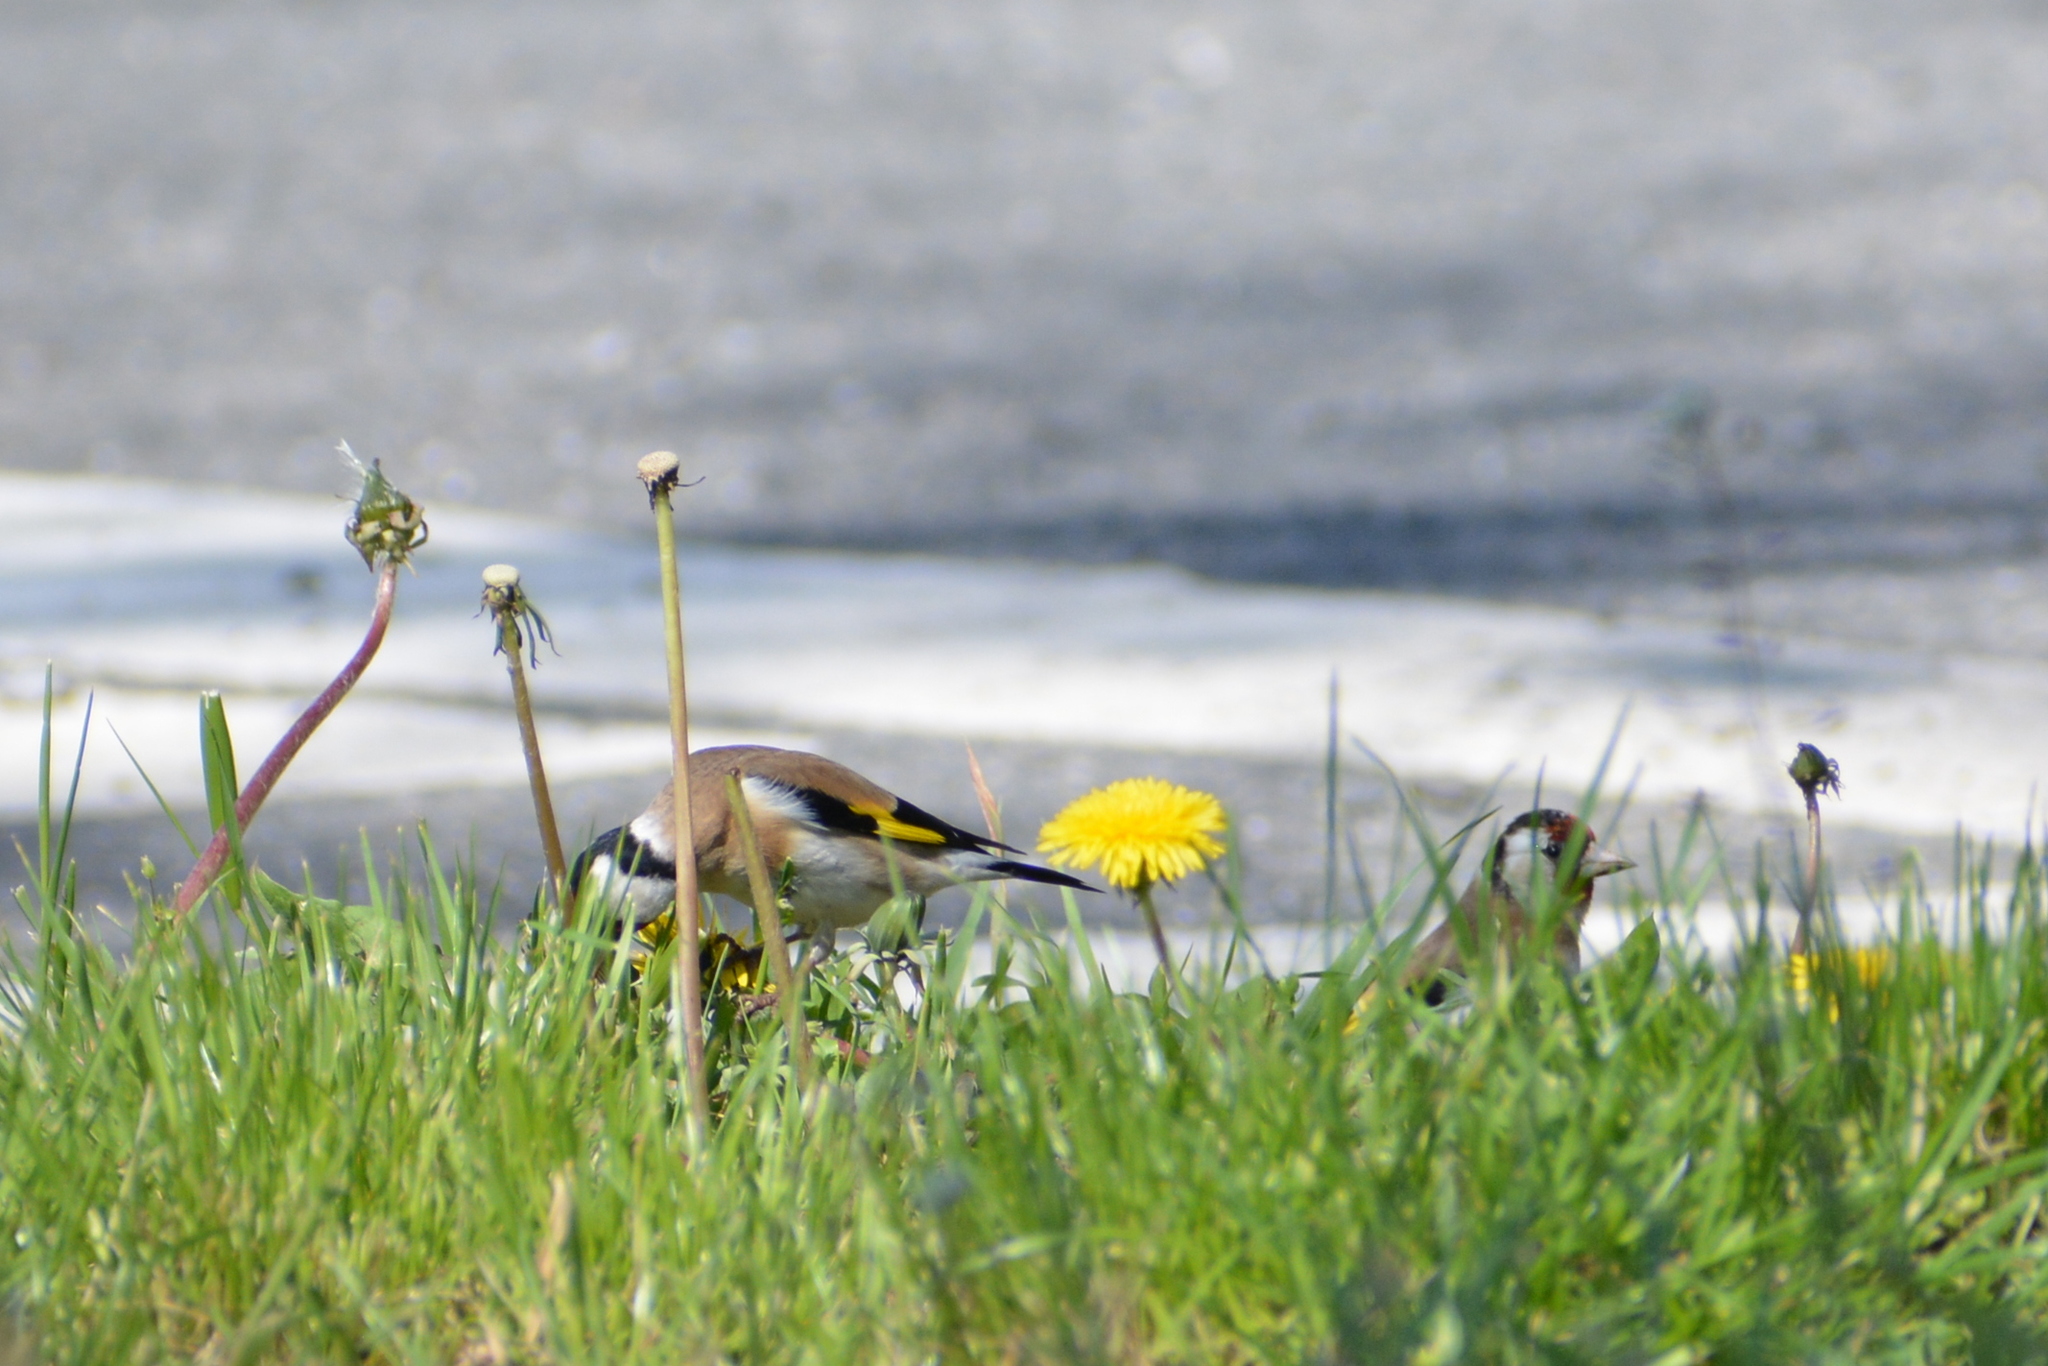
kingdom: Animalia
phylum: Chordata
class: Aves
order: Passeriformes
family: Fringillidae
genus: Carduelis
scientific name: Carduelis carduelis
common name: European goldfinch
